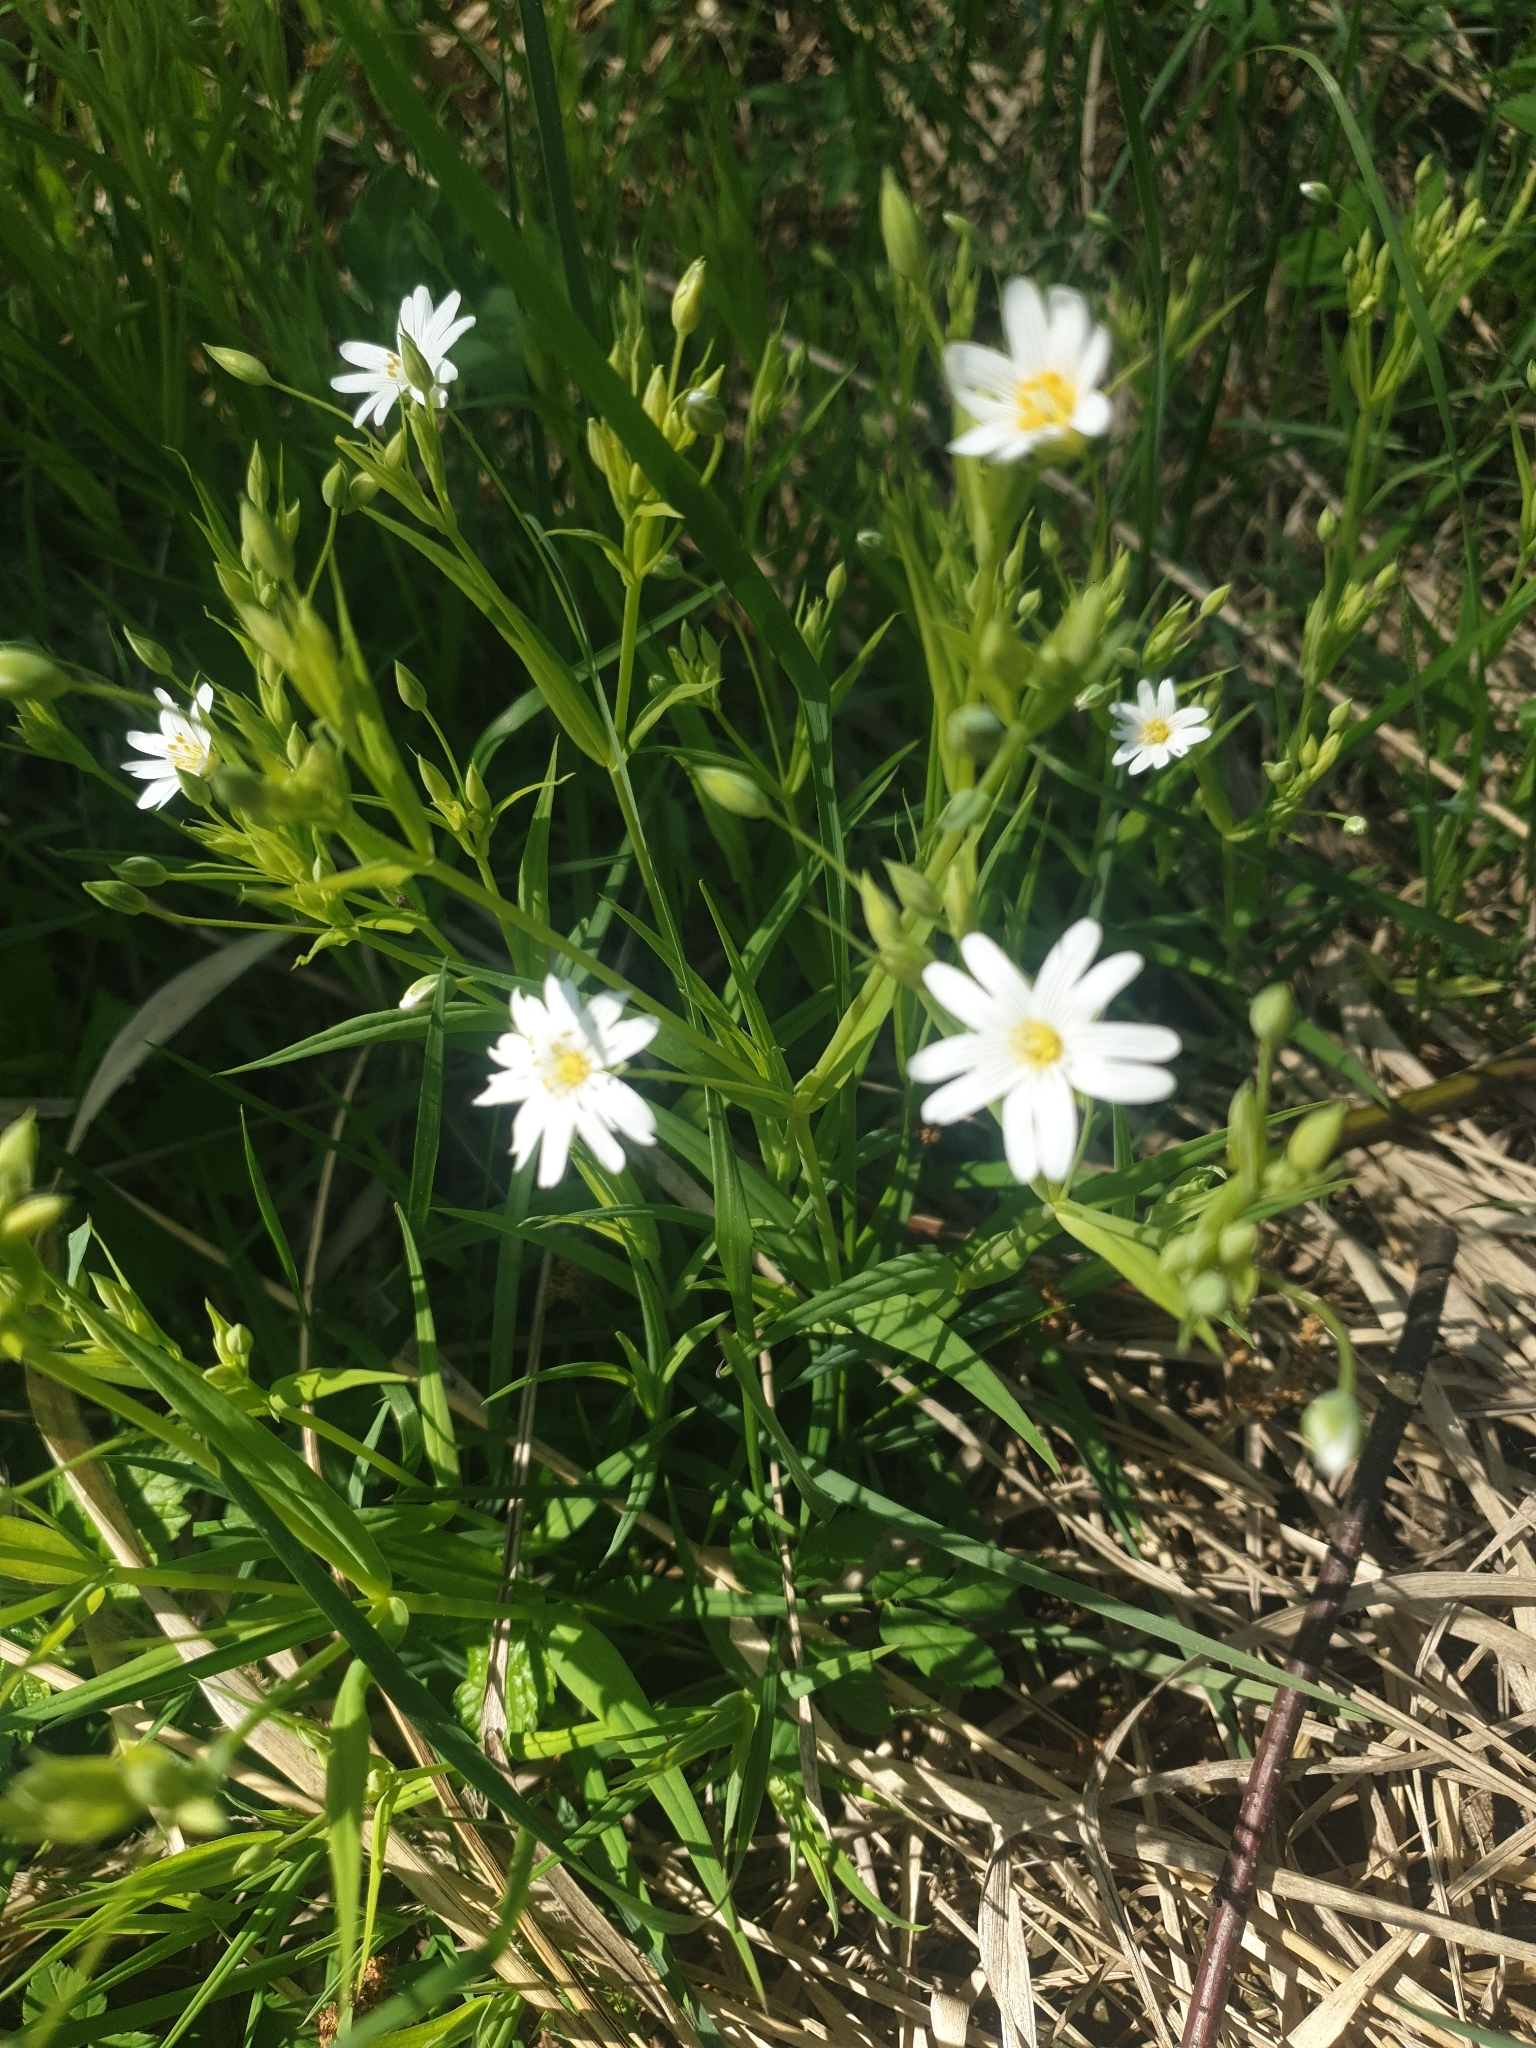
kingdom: Plantae
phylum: Tracheophyta
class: Magnoliopsida
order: Caryophyllales
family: Caryophyllaceae
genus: Rabelera
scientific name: Rabelera holostea
